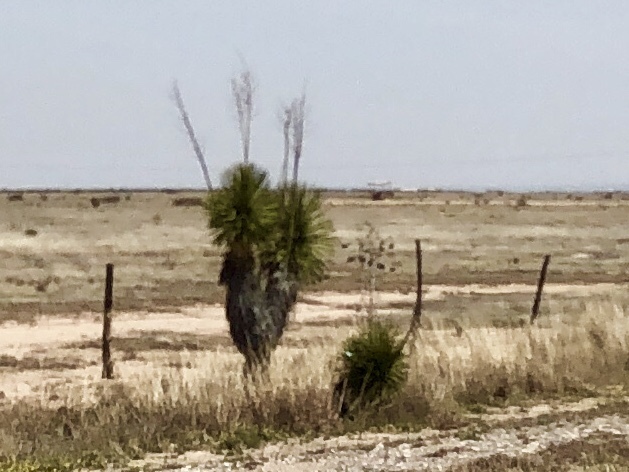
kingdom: Plantae
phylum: Tracheophyta
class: Liliopsida
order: Asparagales
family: Asparagaceae
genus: Yucca
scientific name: Yucca elata
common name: Palmella
